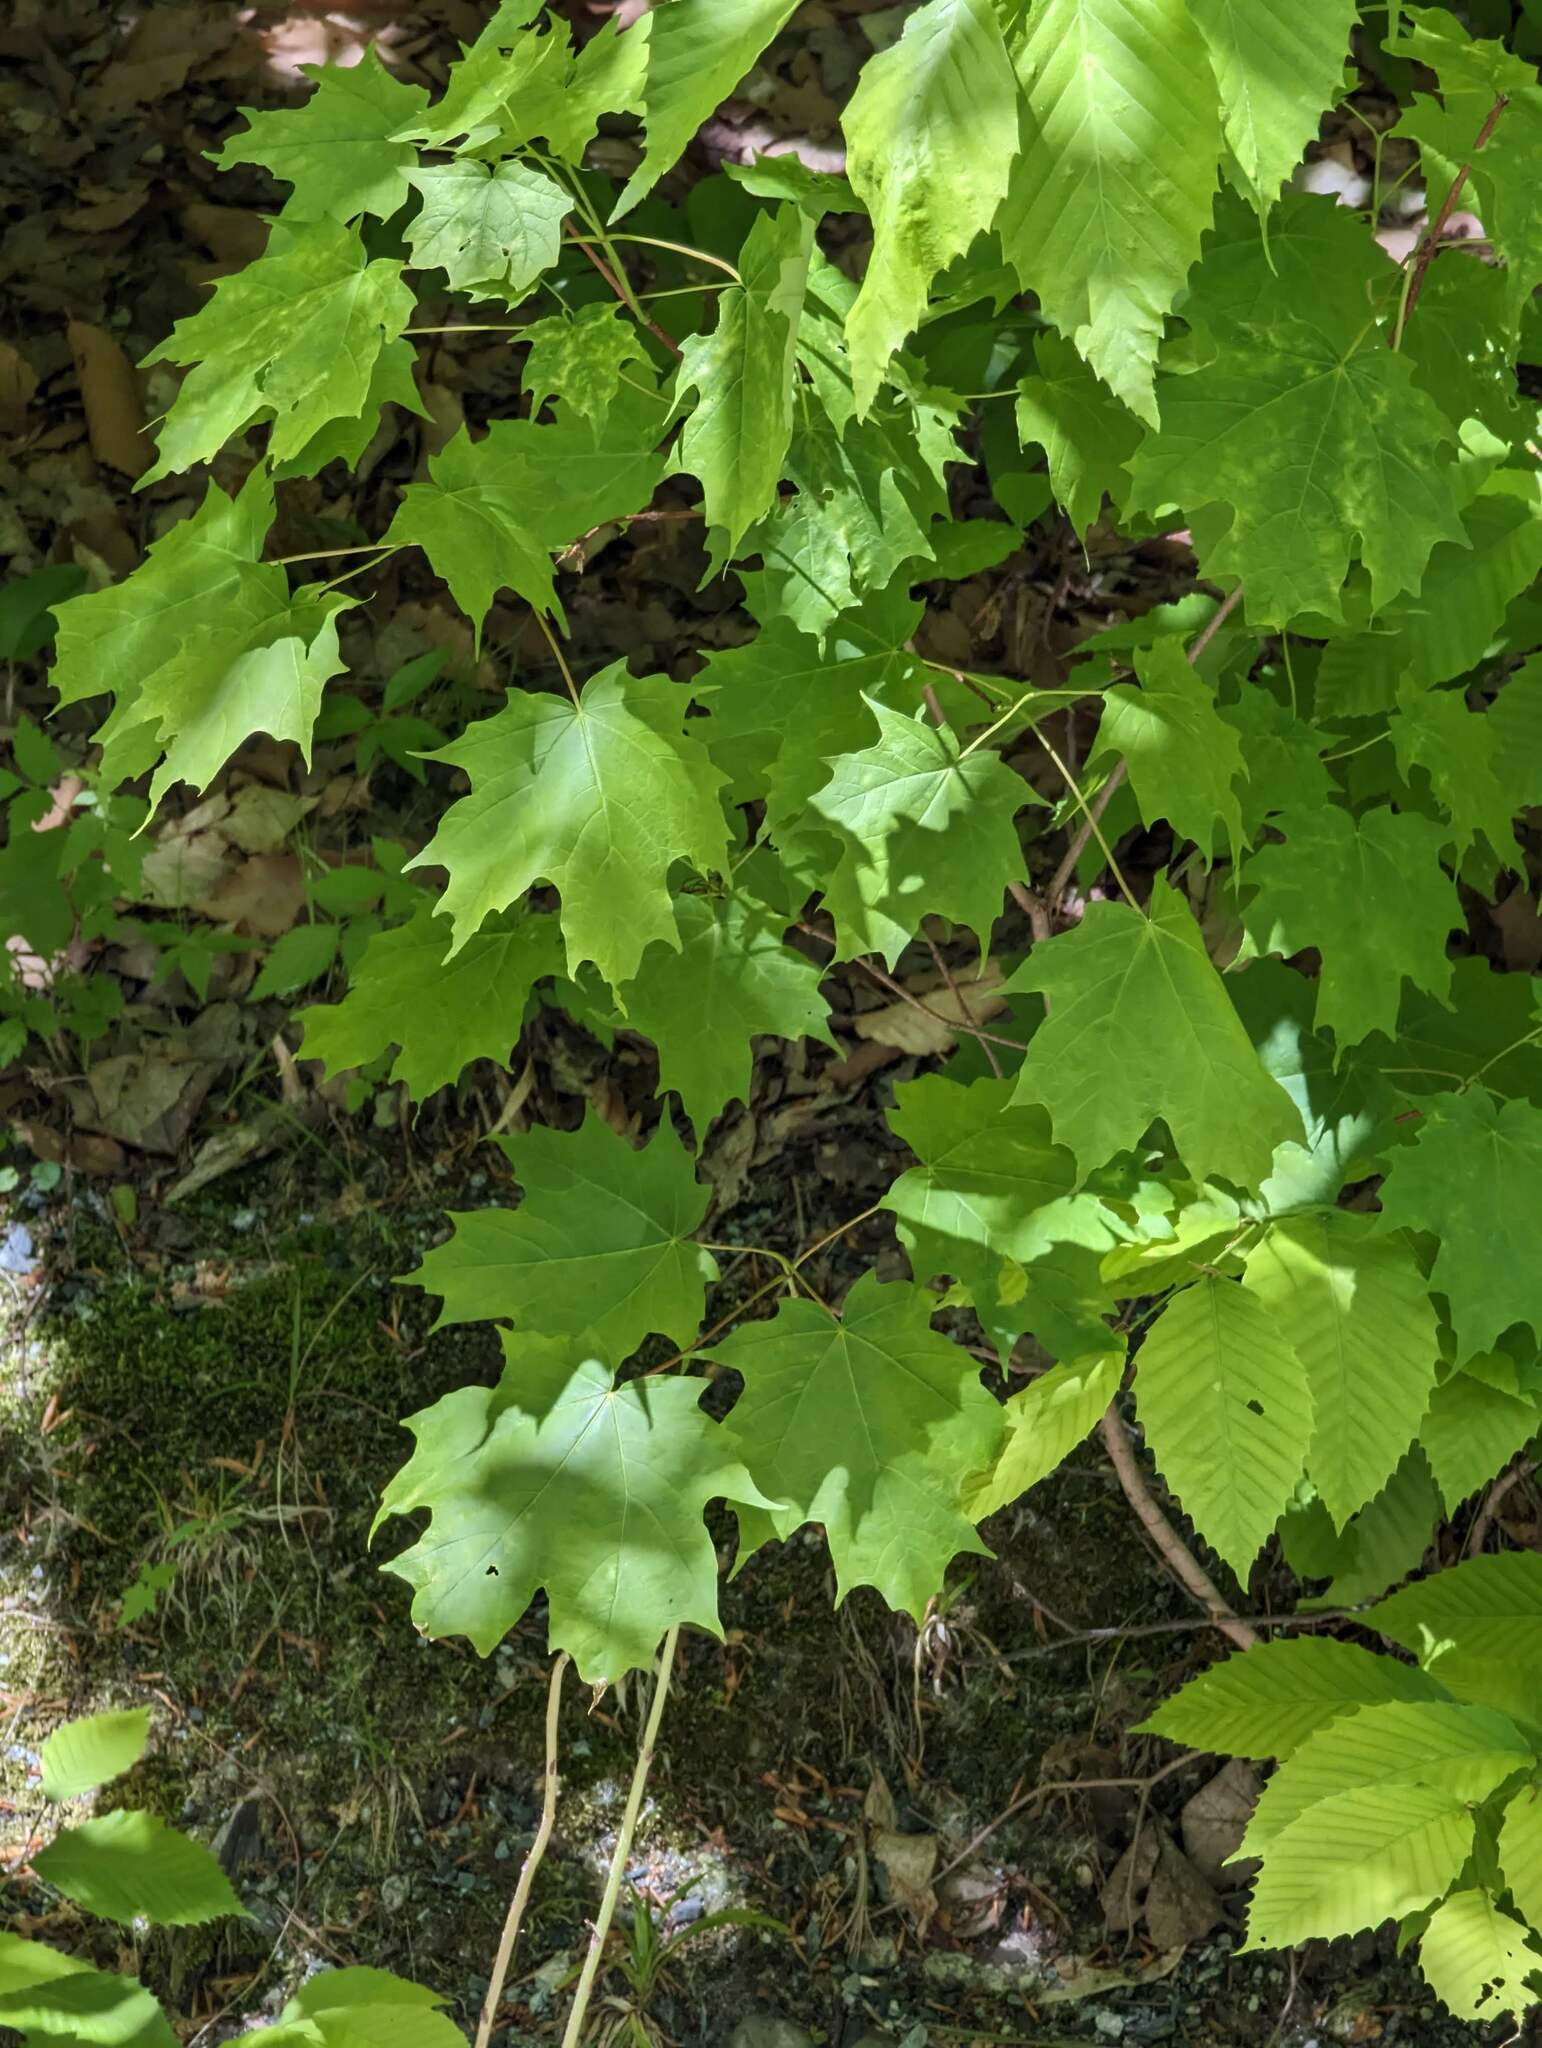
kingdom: Plantae
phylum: Tracheophyta
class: Magnoliopsida
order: Sapindales
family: Sapindaceae
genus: Acer
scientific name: Acer saccharum
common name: Sugar maple
